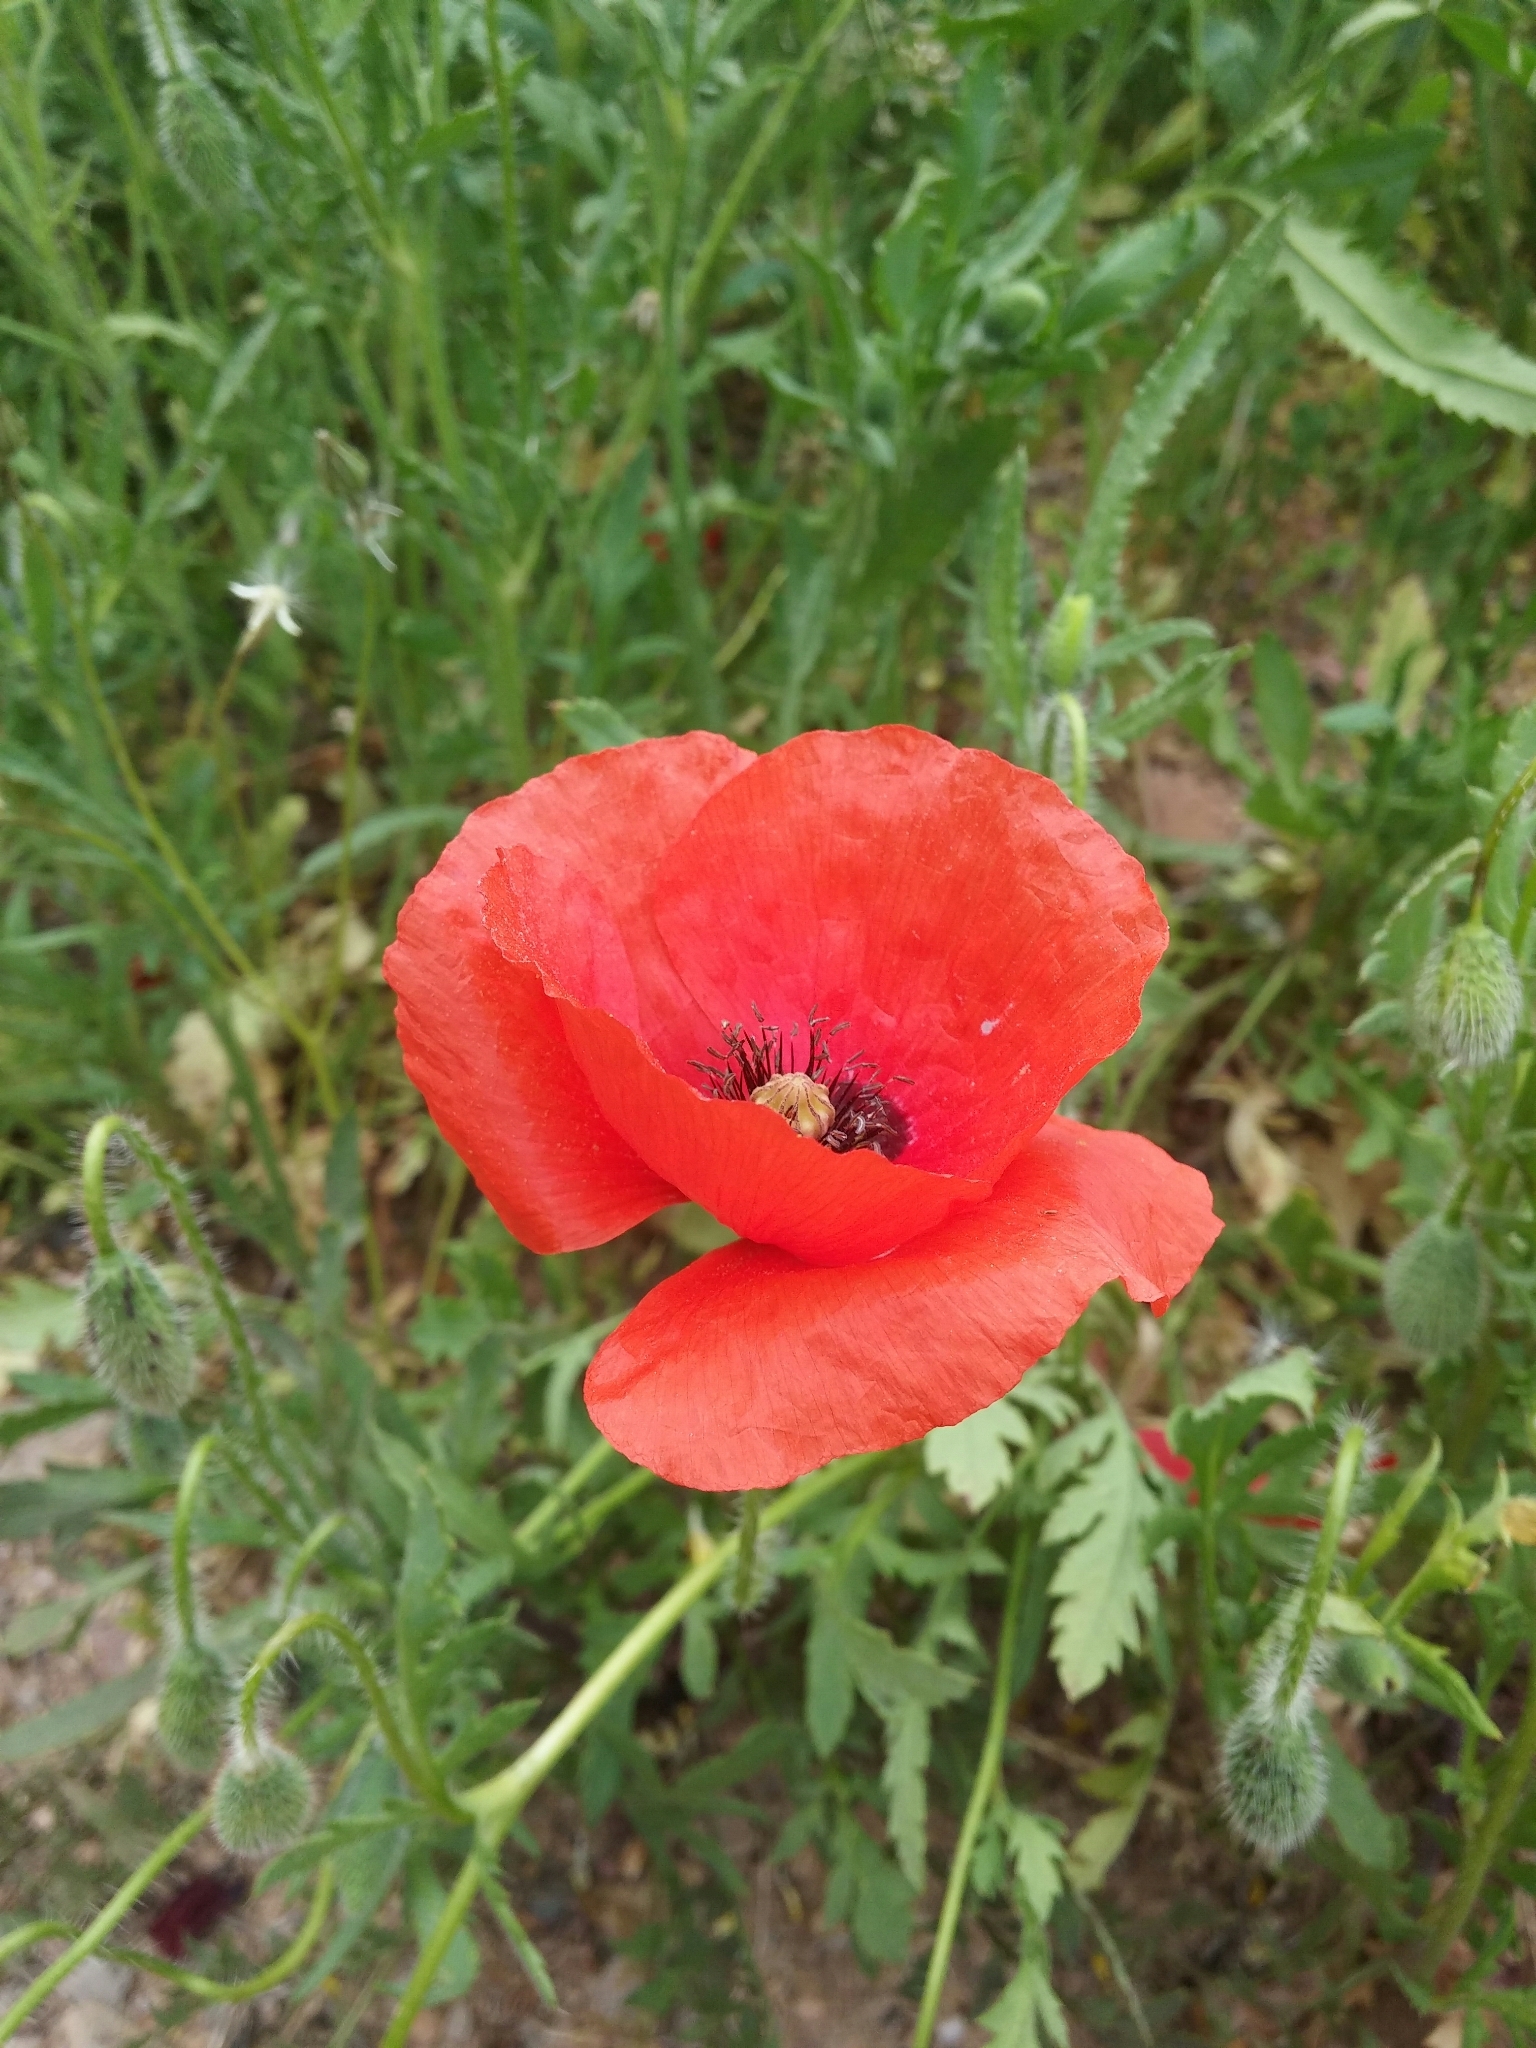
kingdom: Plantae
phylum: Tracheophyta
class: Magnoliopsida
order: Ranunculales
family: Papaveraceae
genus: Papaver
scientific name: Papaver rhoeas
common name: Corn poppy
